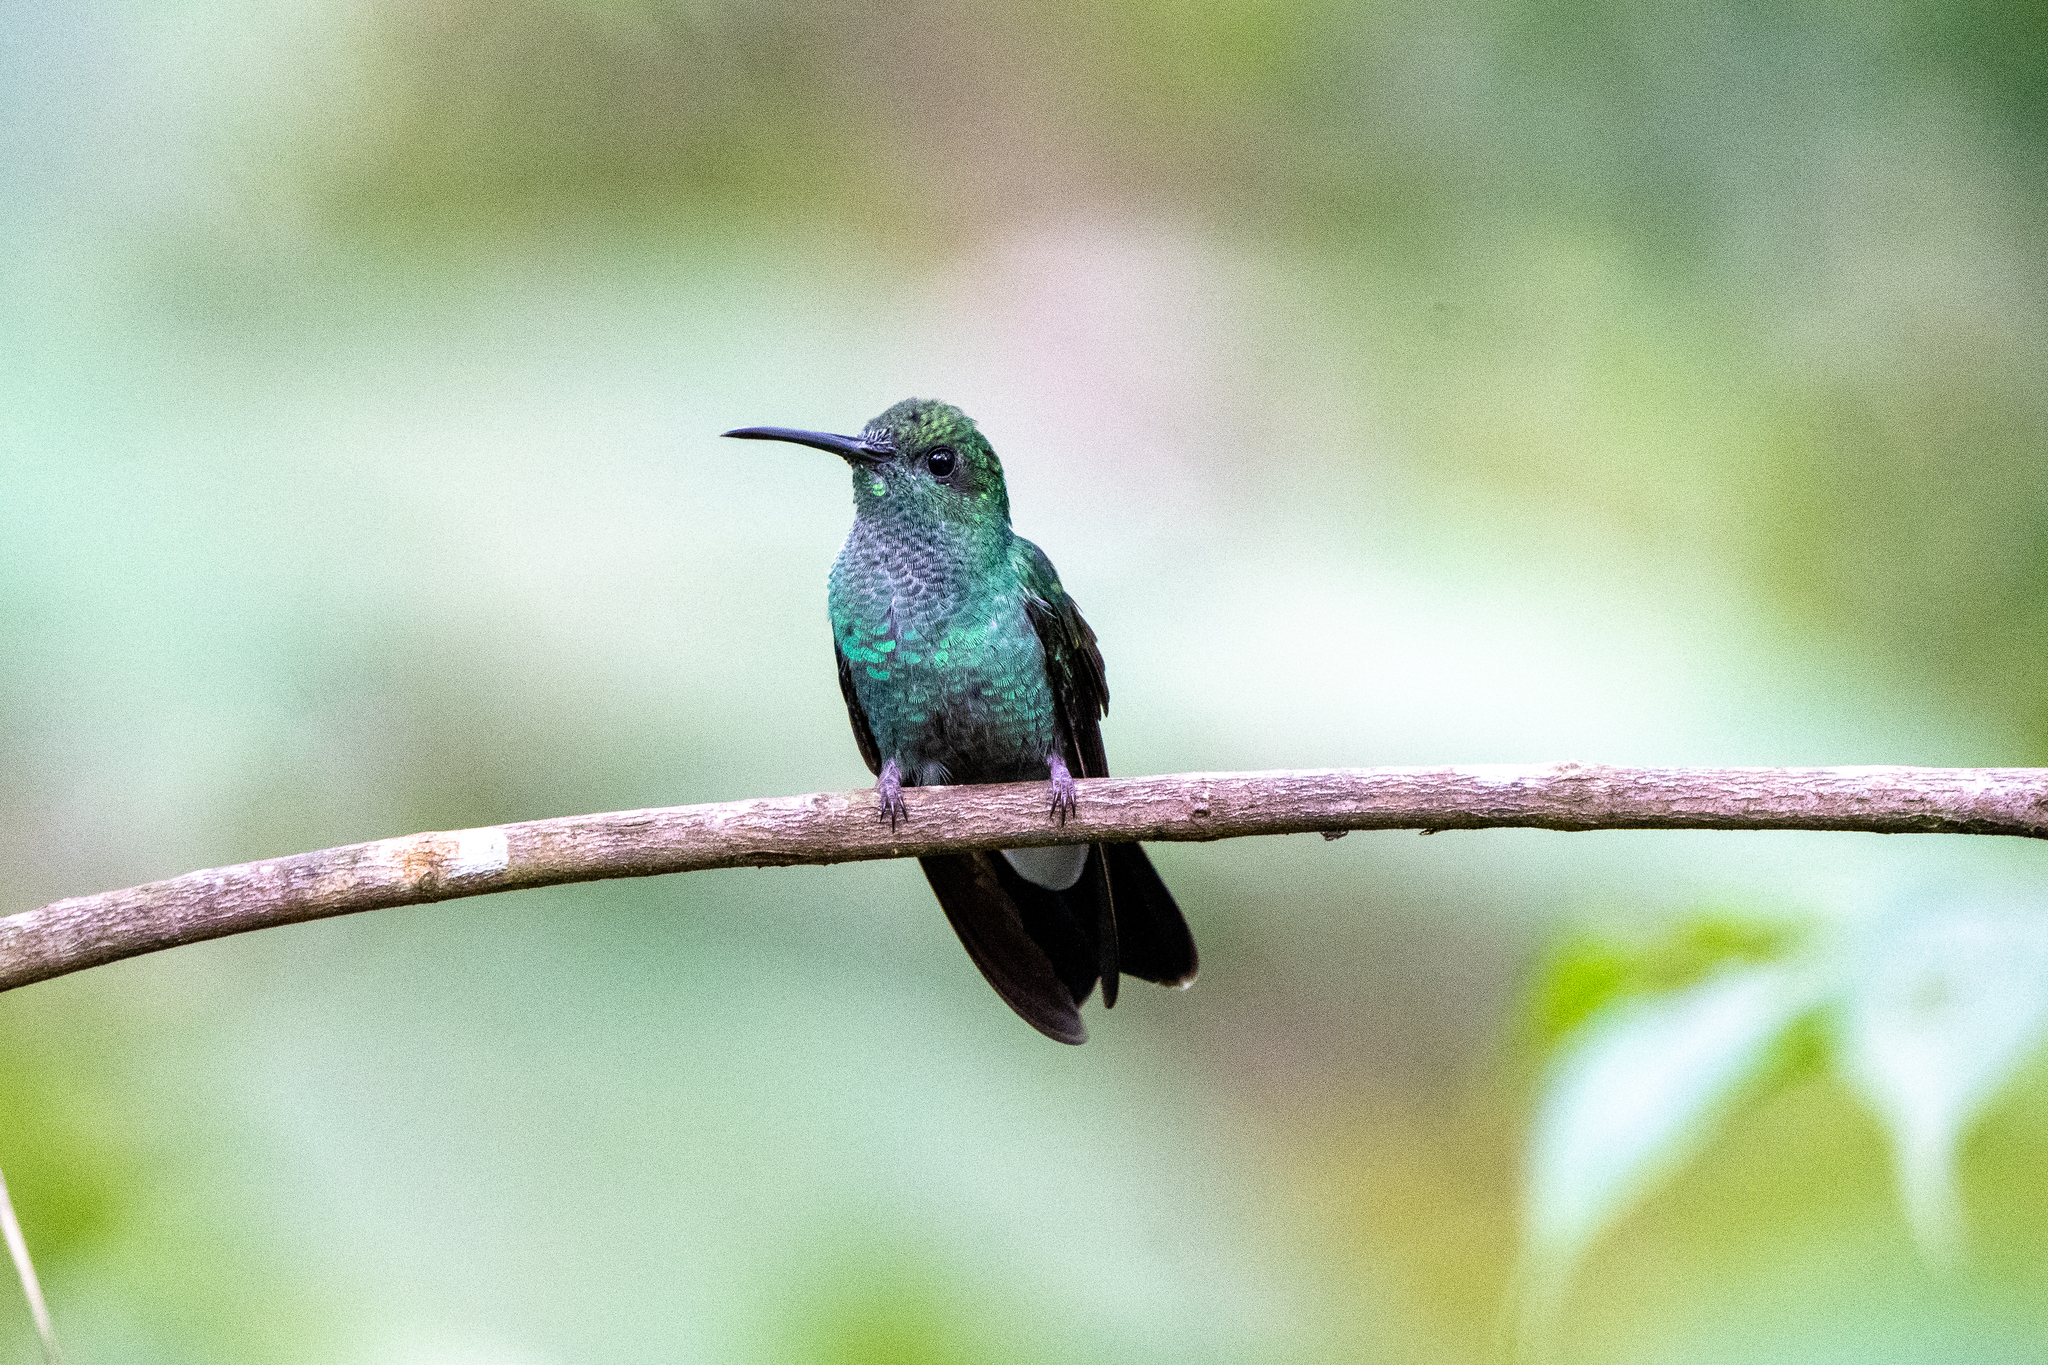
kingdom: Animalia
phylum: Chordata
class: Aves
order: Apodiformes
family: Trochilidae
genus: Chalybura
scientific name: Chalybura buffonii
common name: White-vented plumeleteer
